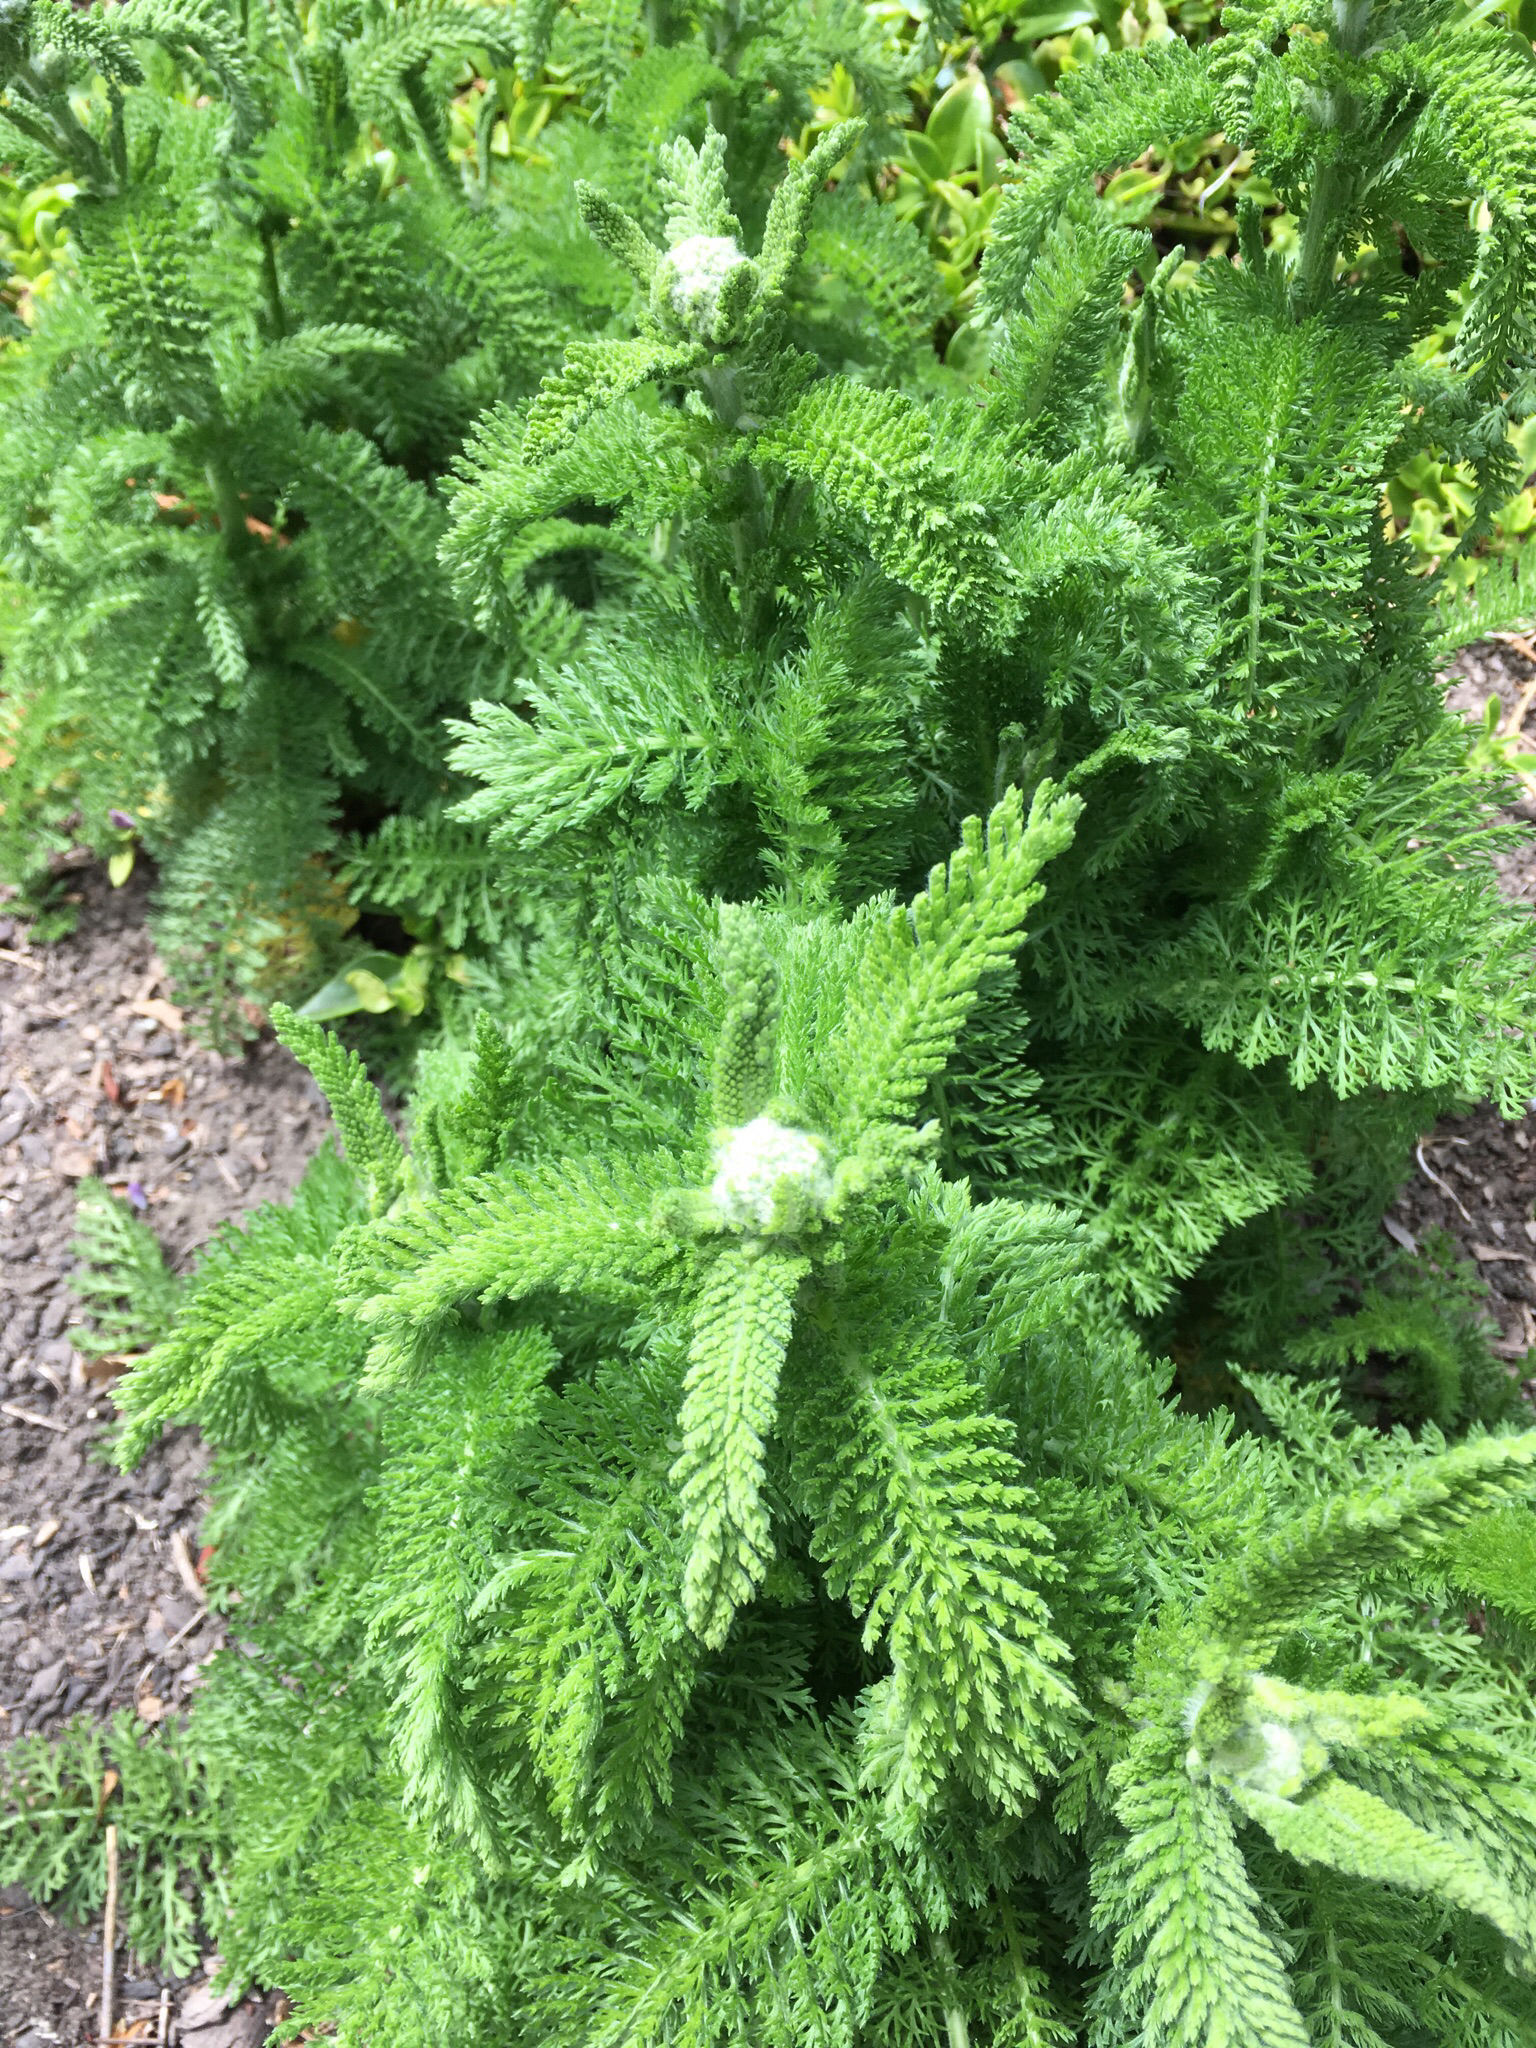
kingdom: Plantae
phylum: Tracheophyta
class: Magnoliopsida
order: Asterales
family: Asteraceae
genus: Achillea
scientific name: Achillea millefolium
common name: Yarrow
